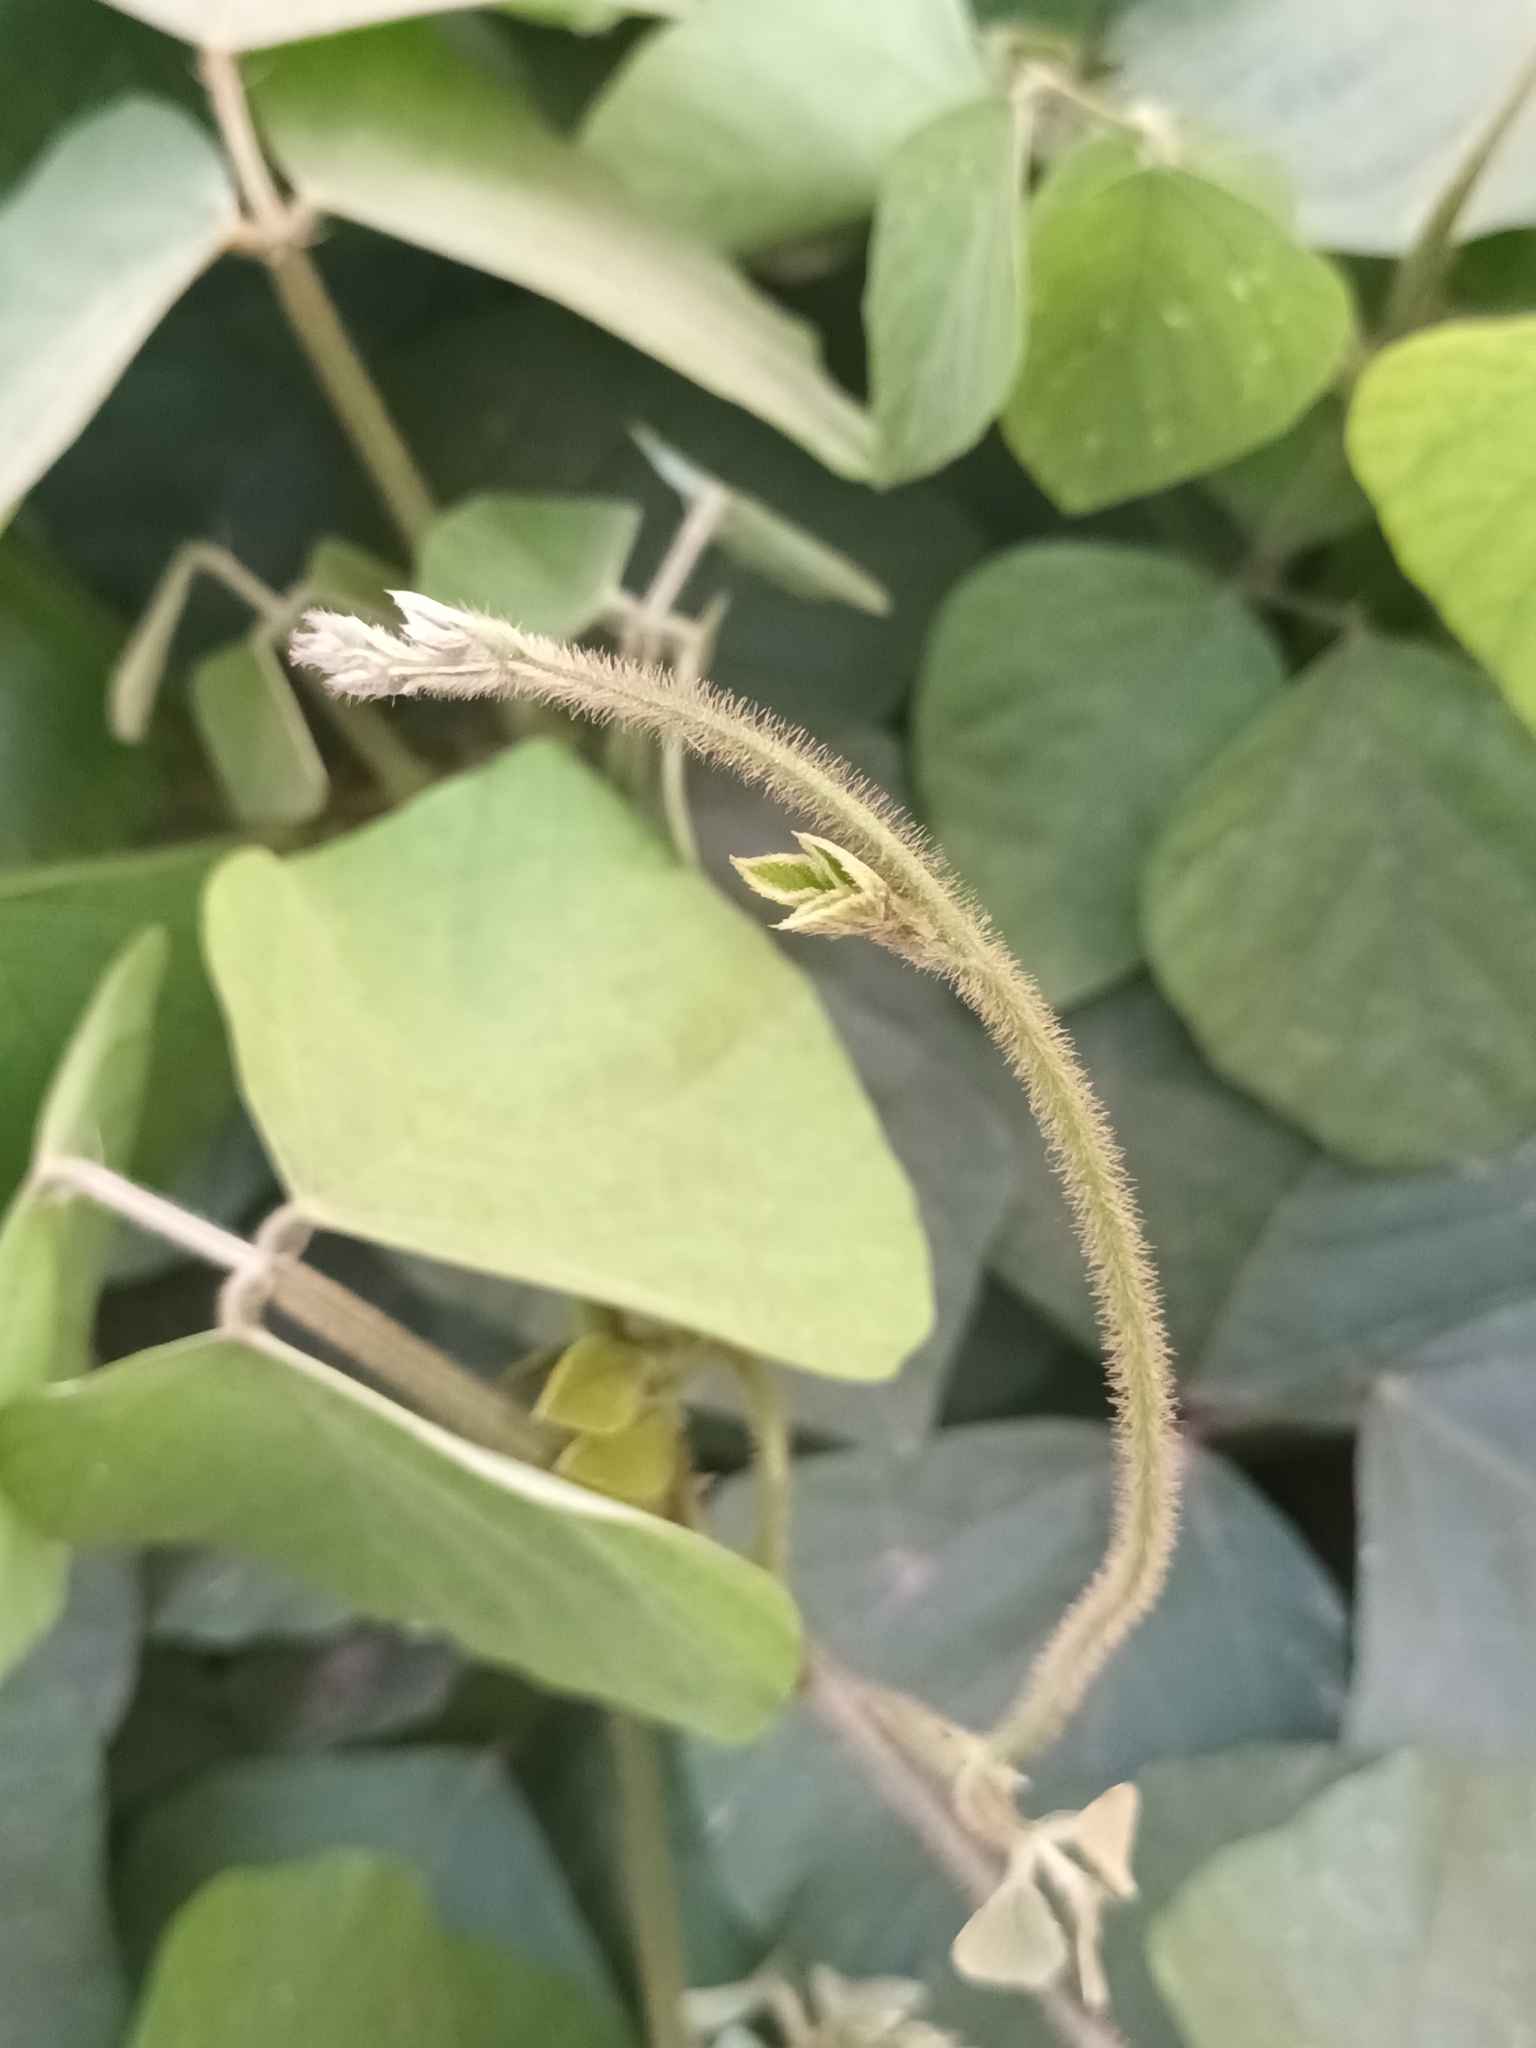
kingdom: Plantae
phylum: Tracheophyta
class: Magnoliopsida
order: Fabales
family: Fabaceae
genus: Neustanthus
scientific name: Neustanthus phaseoloides
